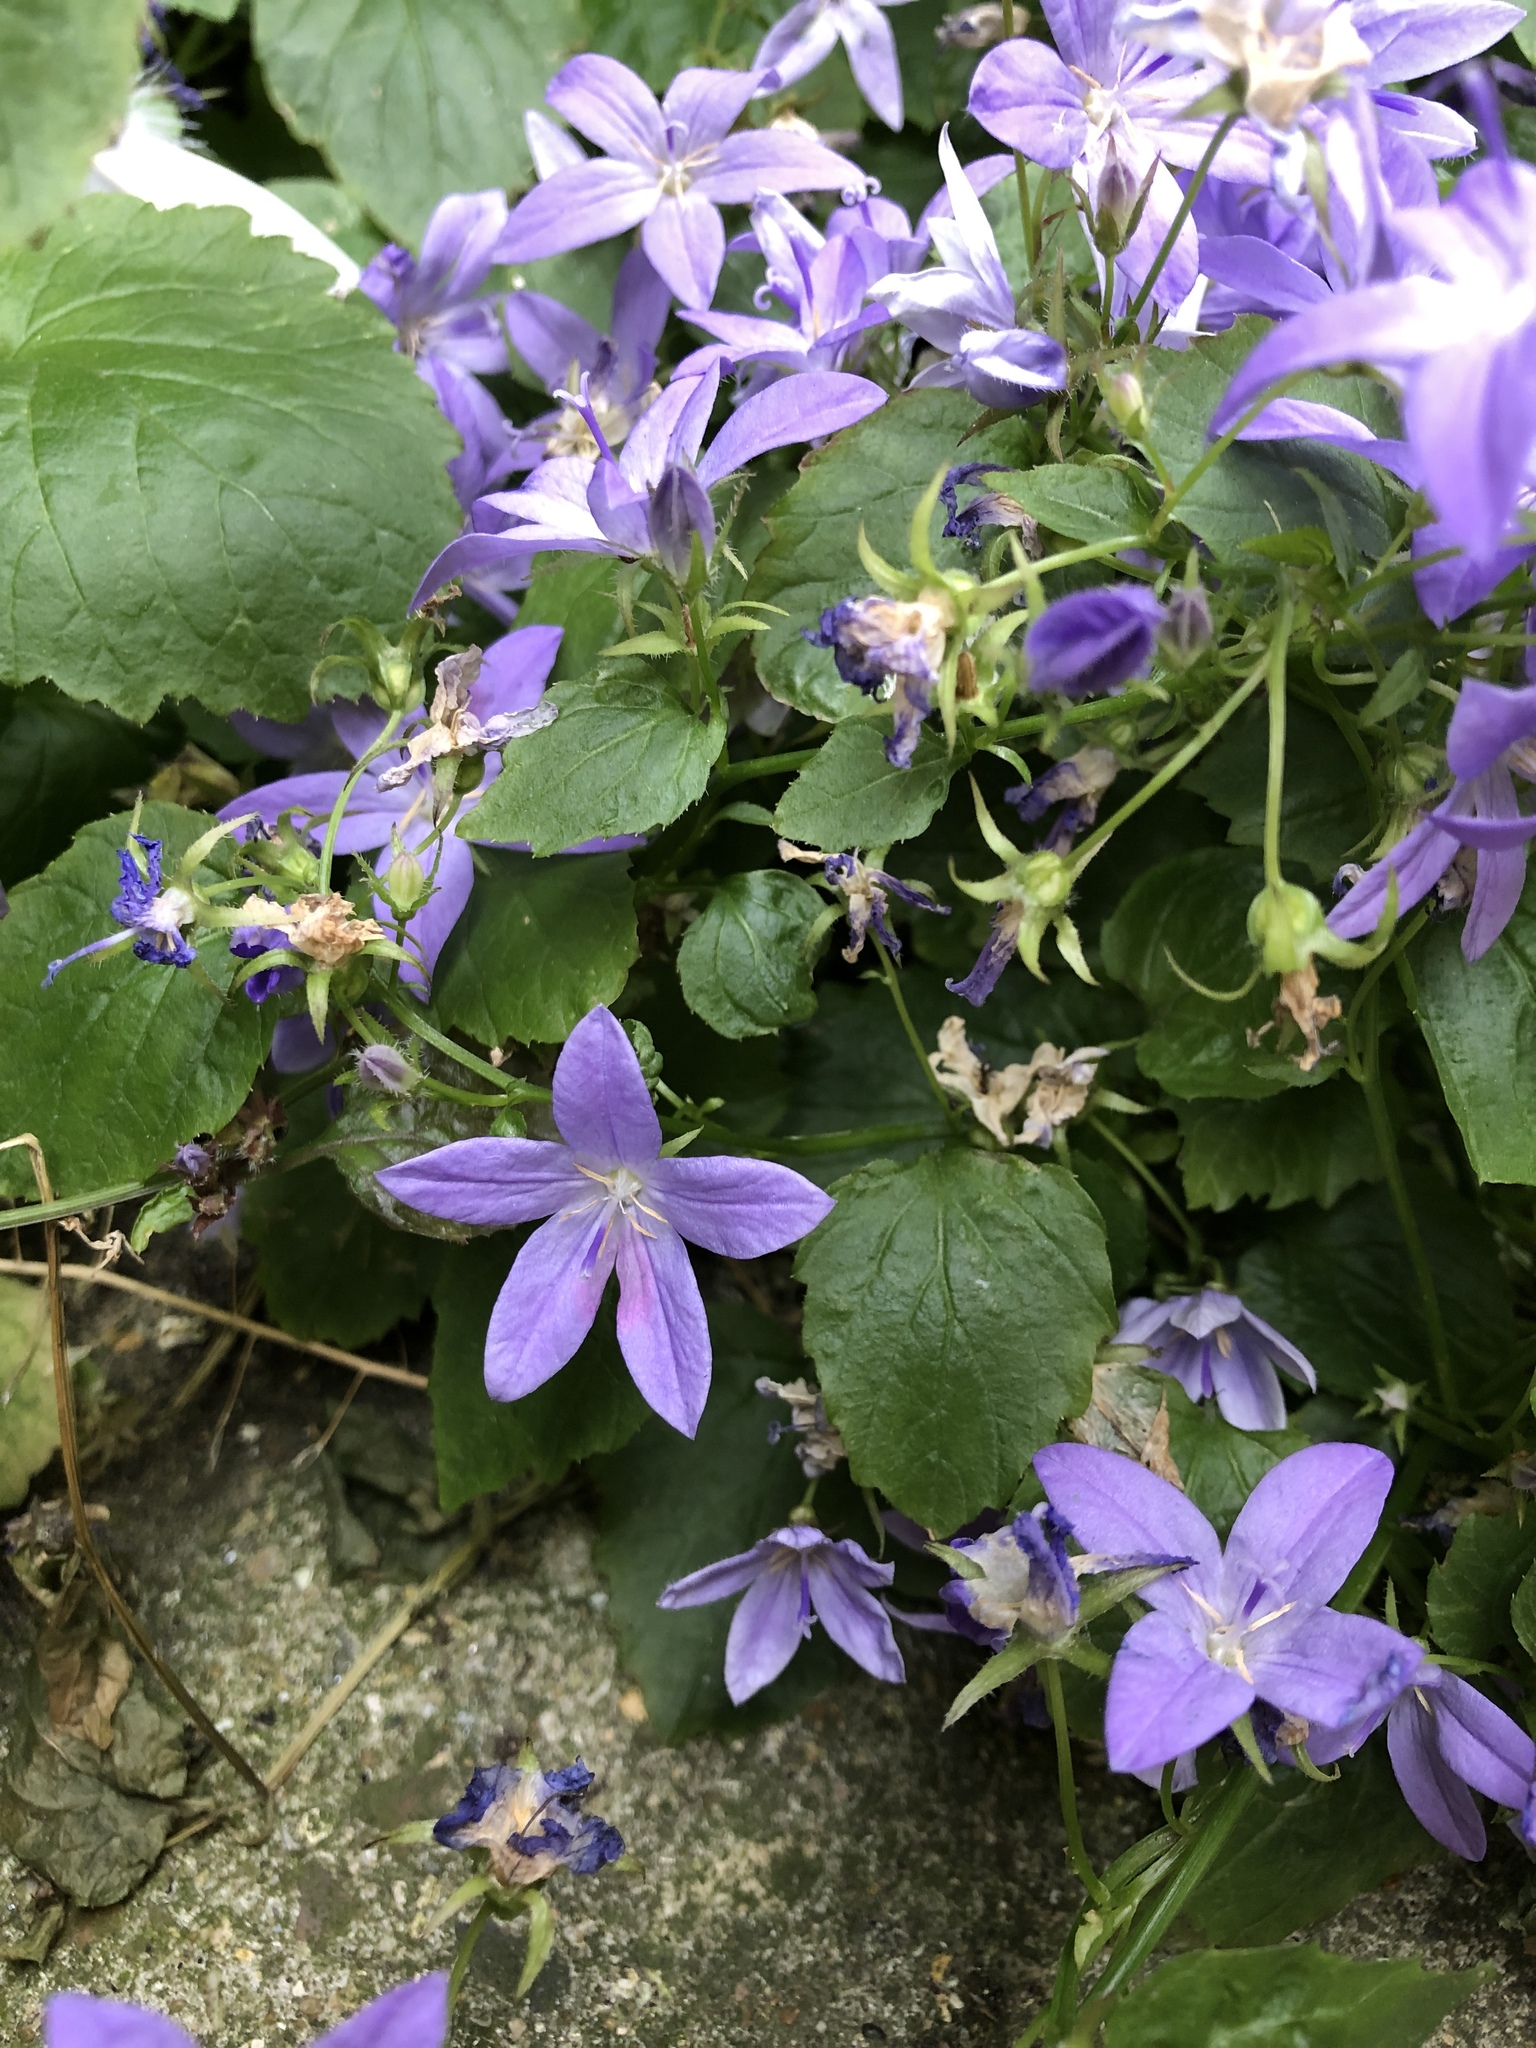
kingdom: Plantae
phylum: Tracheophyta
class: Magnoliopsida
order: Asterales
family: Campanulaceae
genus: Campanula
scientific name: Campanula poscharskyana
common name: Trailing bellflower
